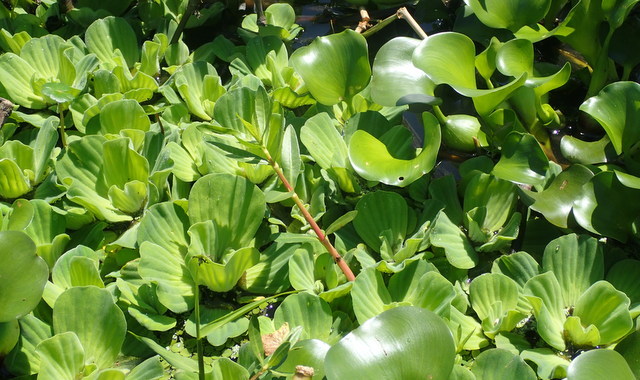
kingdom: Plantae
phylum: Tracheophyta
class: Liliopsida
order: Alismatales
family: Araceae
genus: Pistia
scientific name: Pistia stratiotes
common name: Water lettuce
